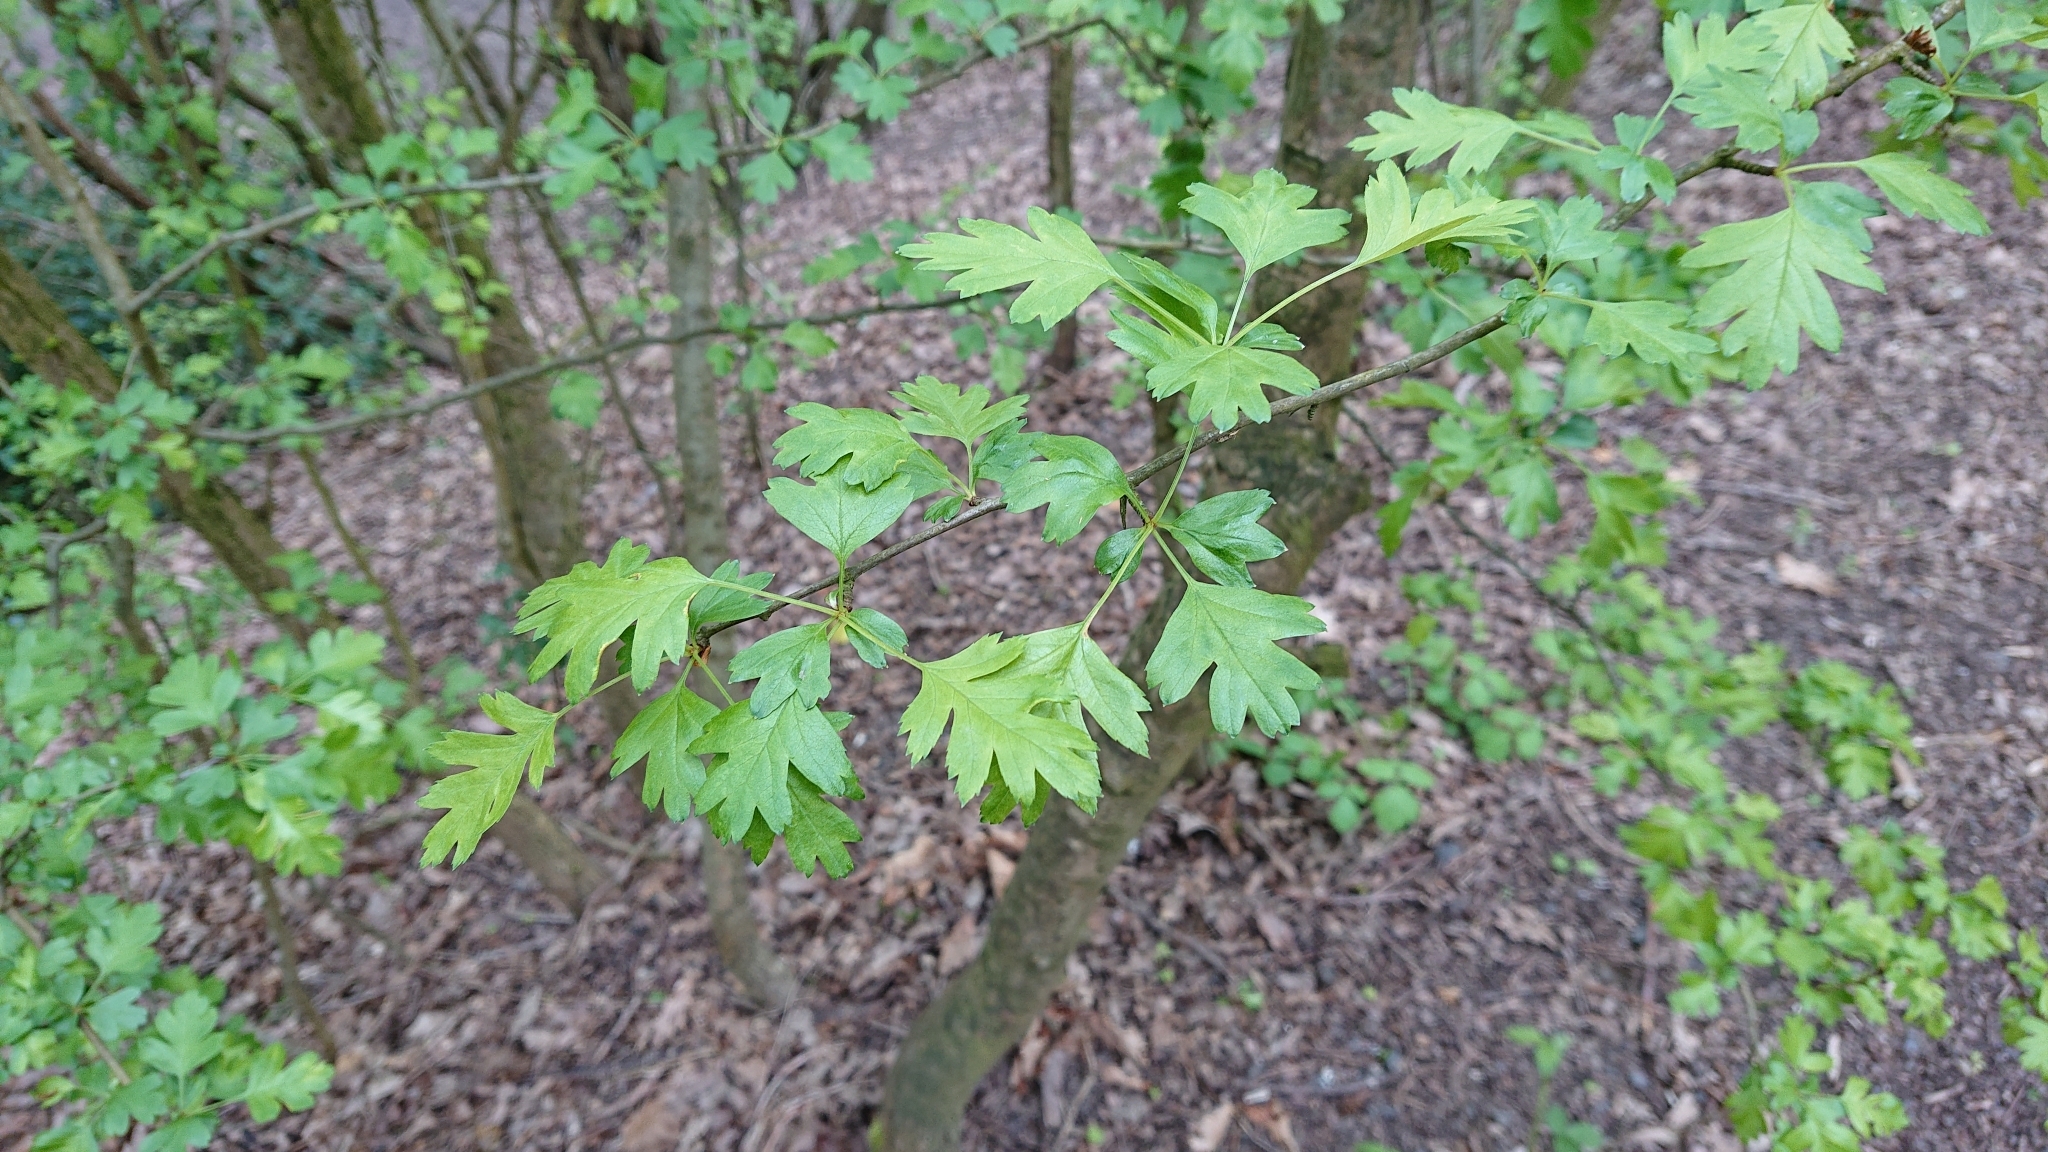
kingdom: Plantae
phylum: Tracheophyta
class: Magnoliopsida
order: Rosales
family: Rosaceae
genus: Crataegus
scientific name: Crataegus monogyna
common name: Hawthorn
